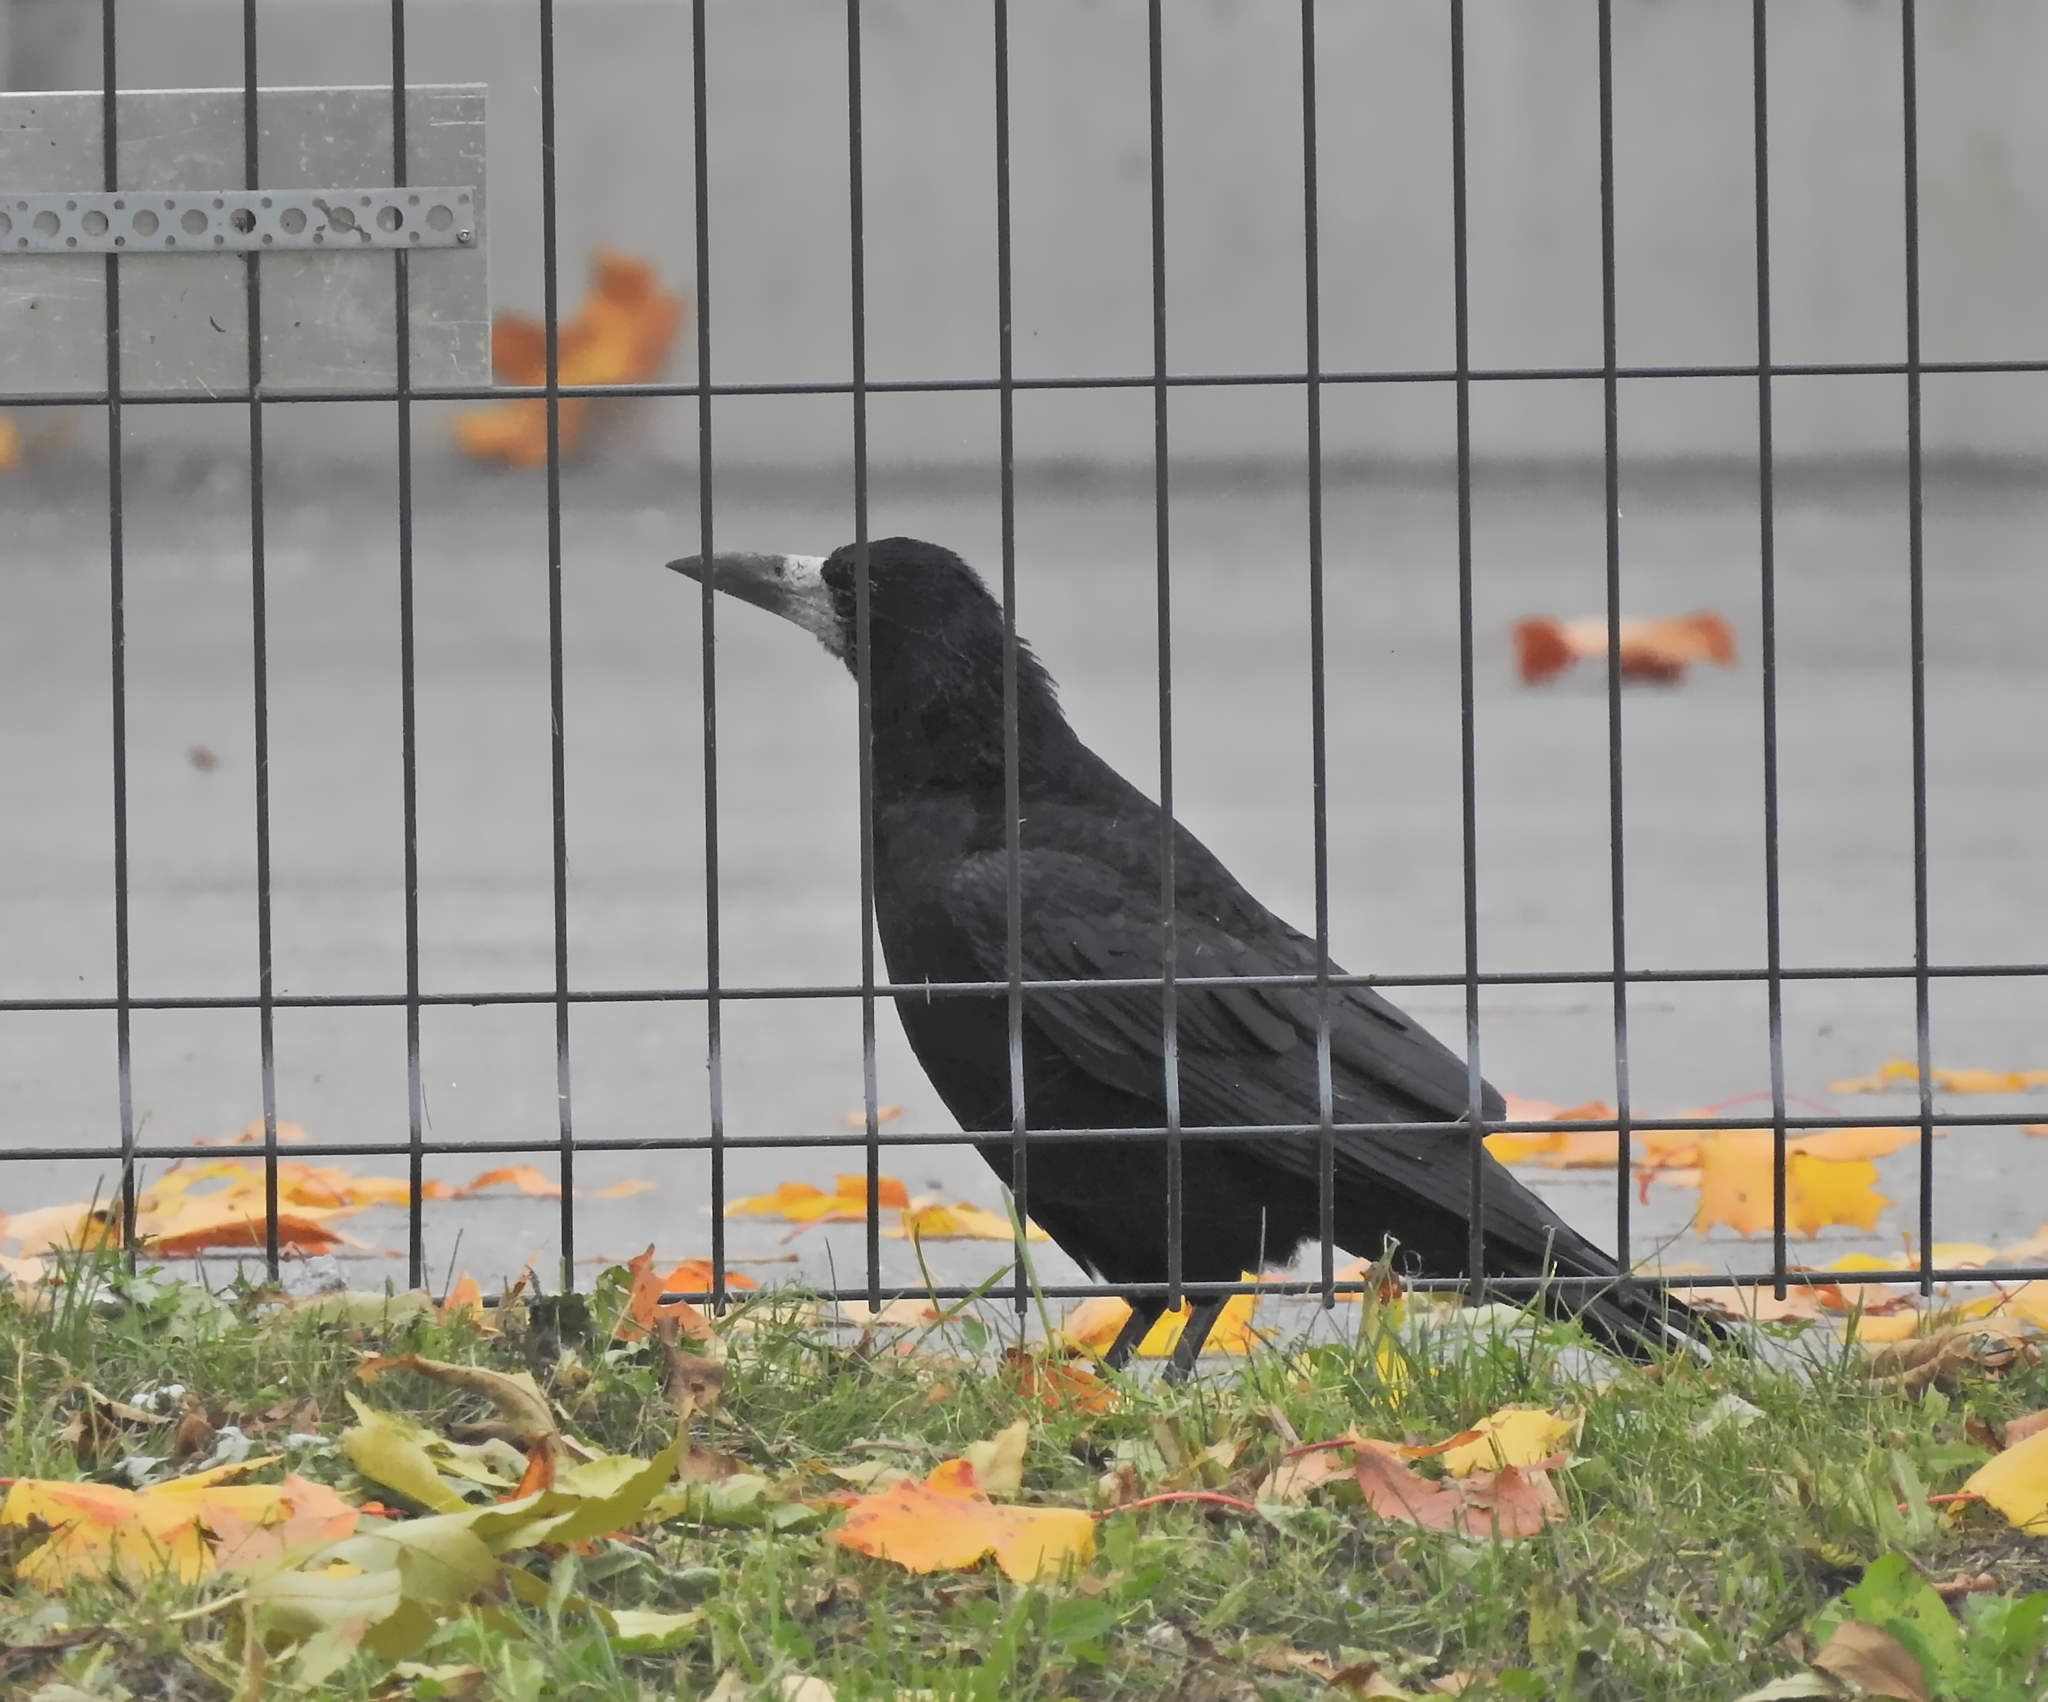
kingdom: Animalia
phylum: Chordata
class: Aves
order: Passeriformes
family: Corvidae
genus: Corvus
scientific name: Corvus frugilegus
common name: Rook
